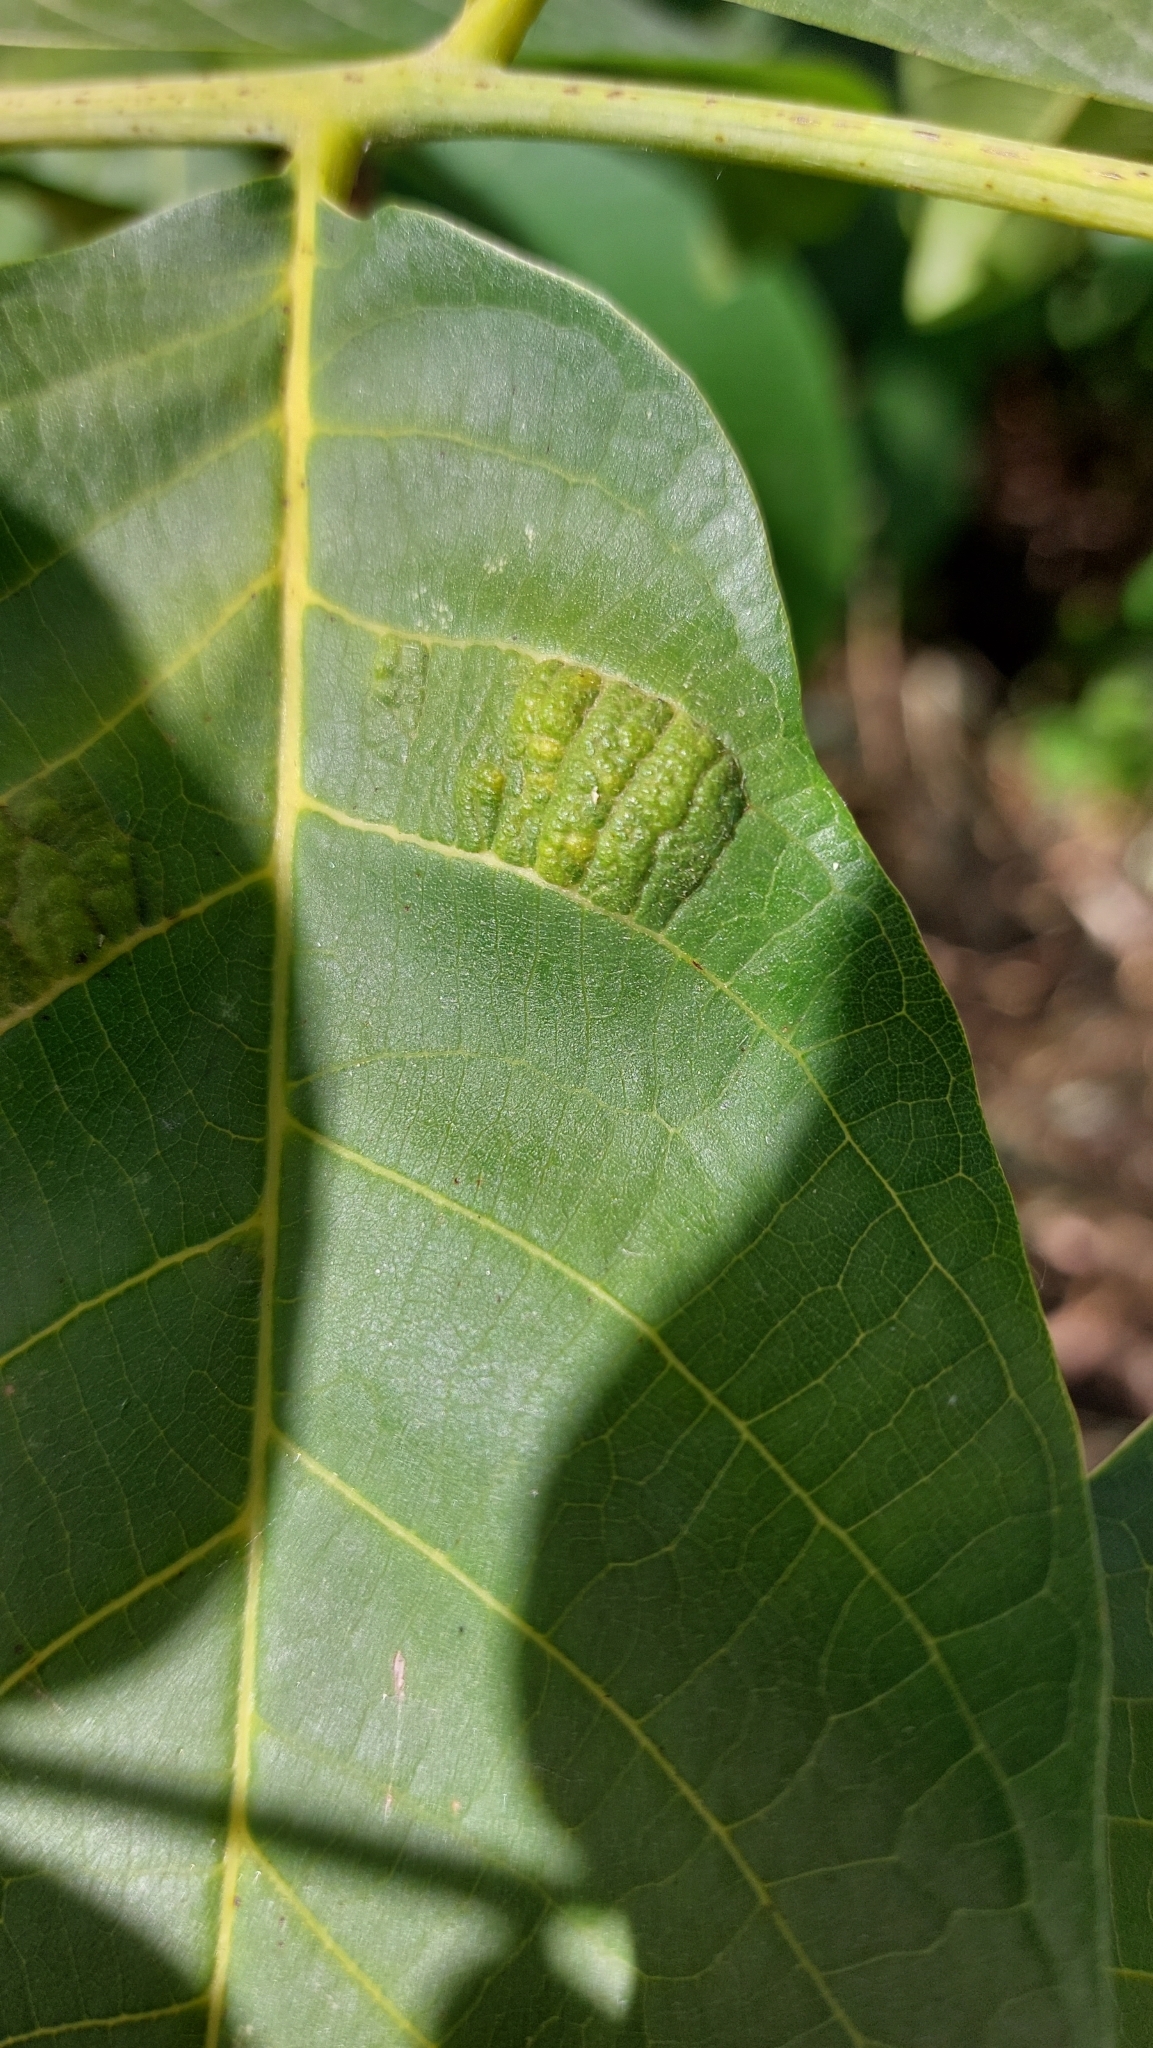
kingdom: Animalia
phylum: Arthropoda
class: Arachnida
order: Trombidiformes
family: Eriophyidae
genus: Aceria
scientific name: Aceria erinea
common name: Persian walnut erineum mite
